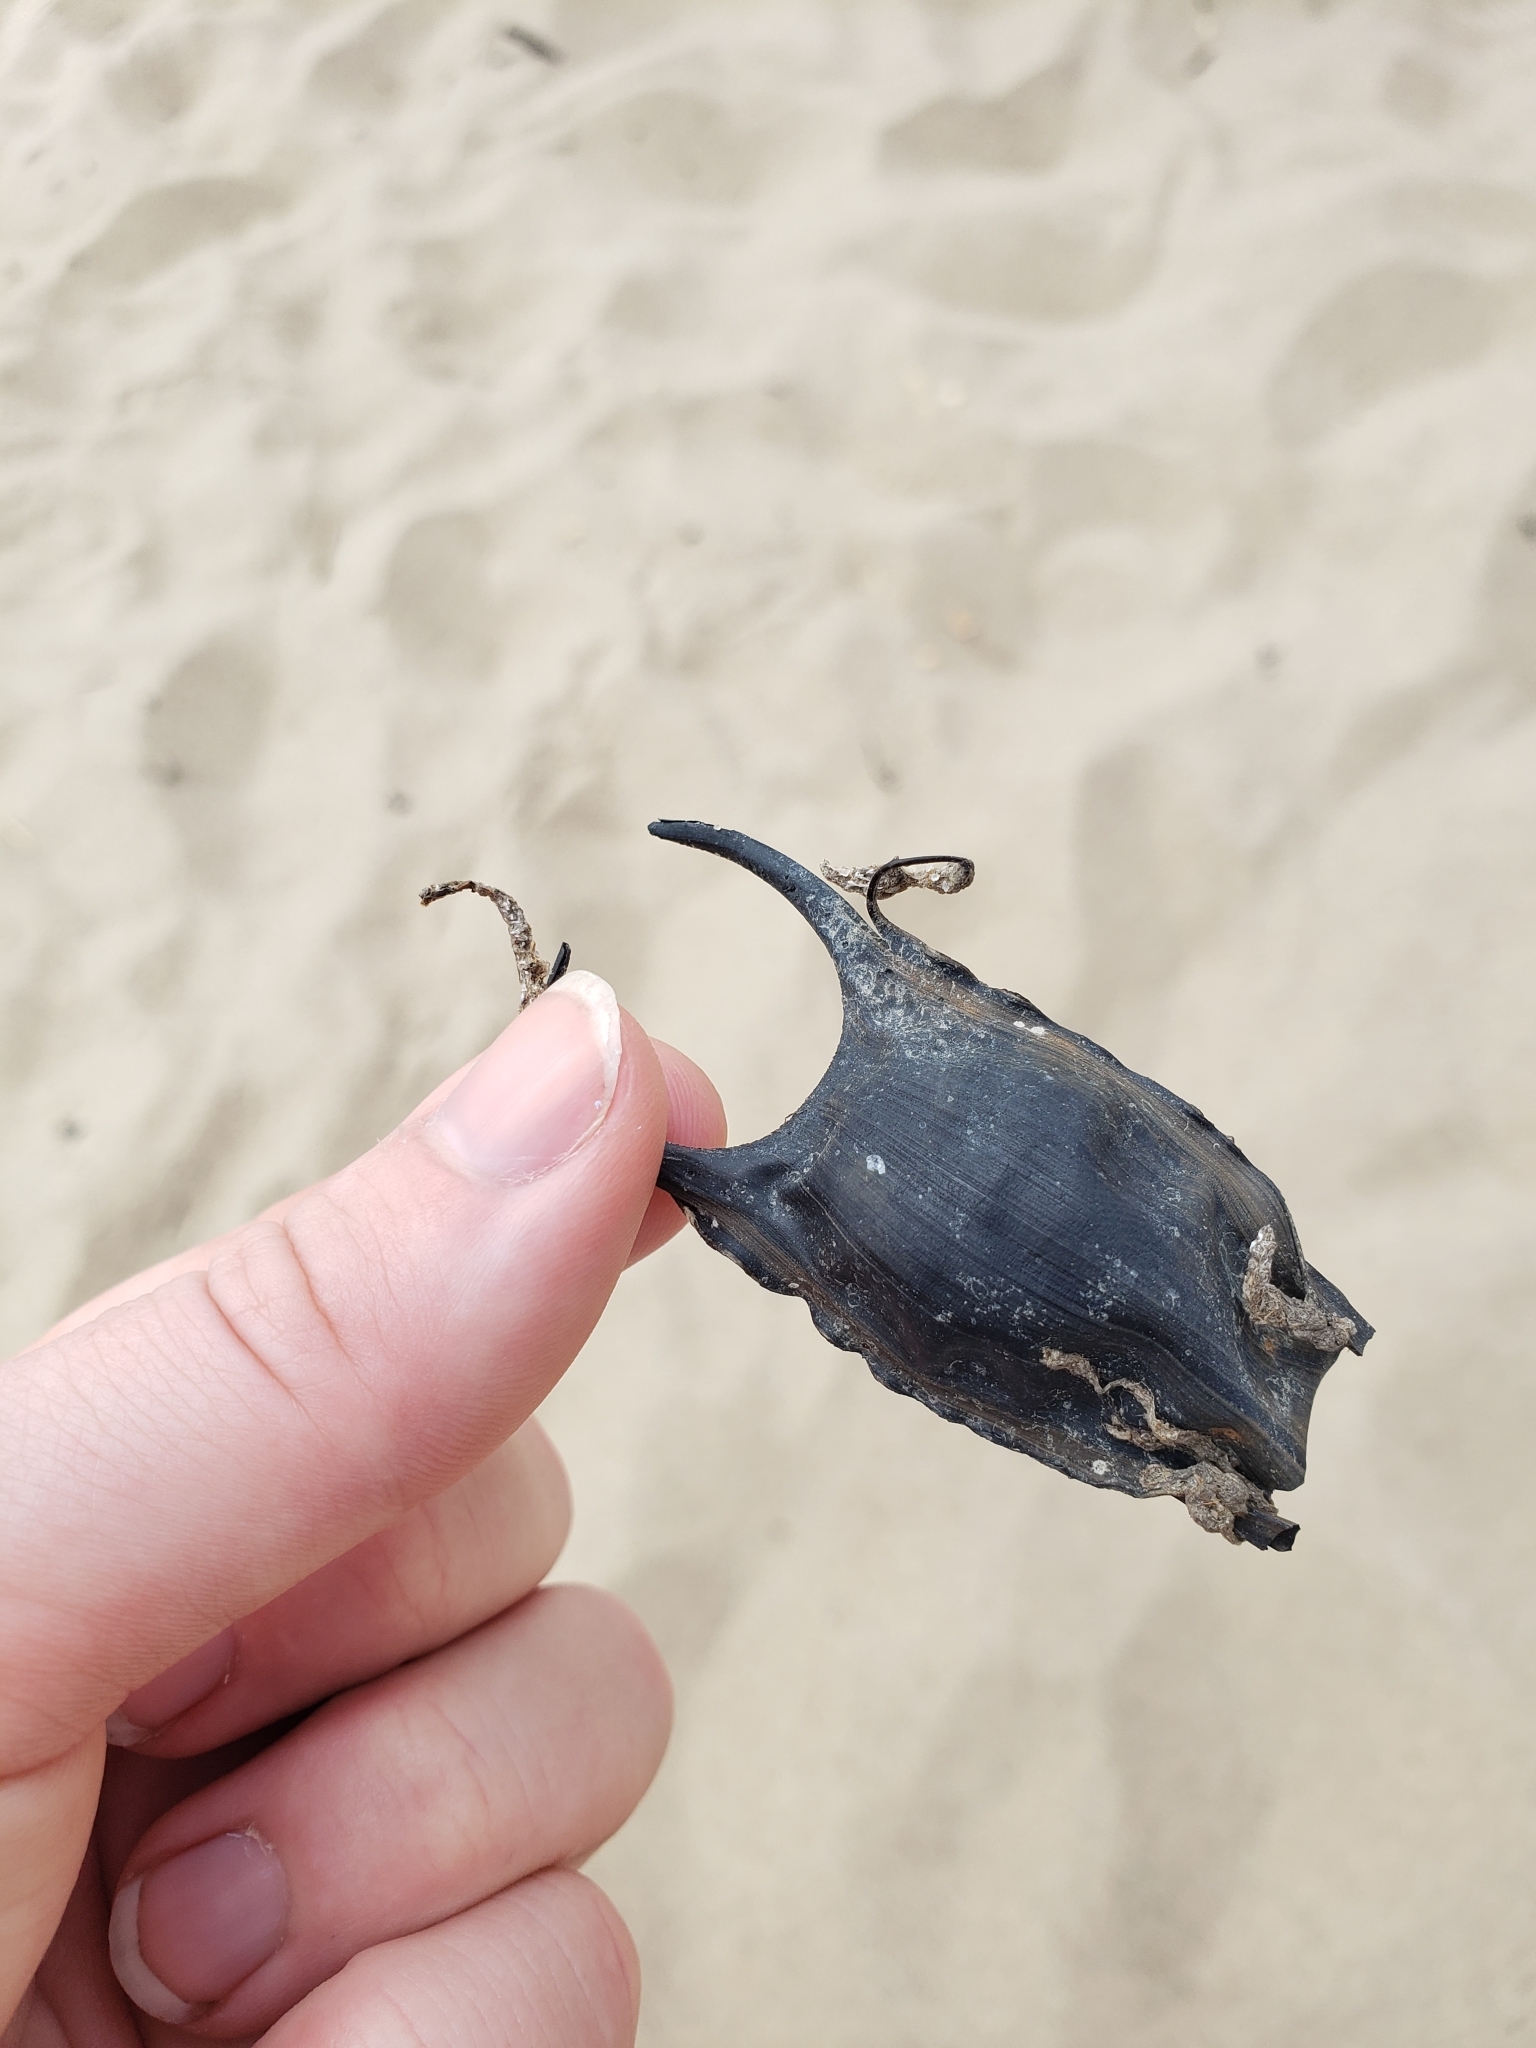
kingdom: Animalia
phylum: Chordata
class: Elasmobranchii
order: Rajiformes
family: Rajidae
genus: Leucoraja
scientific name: Leucoraja garmani
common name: Rosette skate
